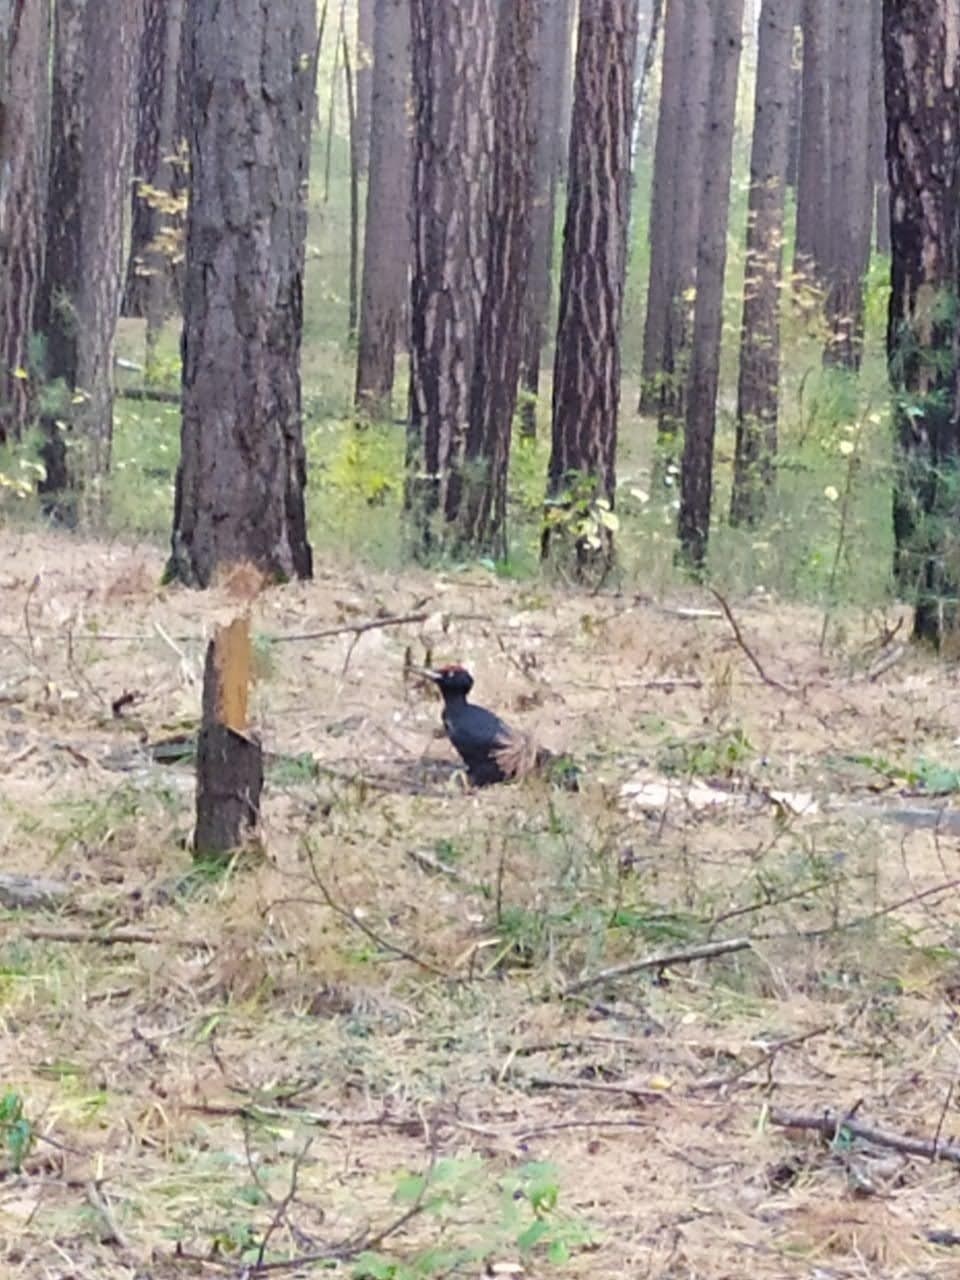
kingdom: Animalia
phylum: Chordata
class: Aves
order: Piciformes
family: Picidae
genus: Dryocopus
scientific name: Dryocopus martius
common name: Black woodpecker
